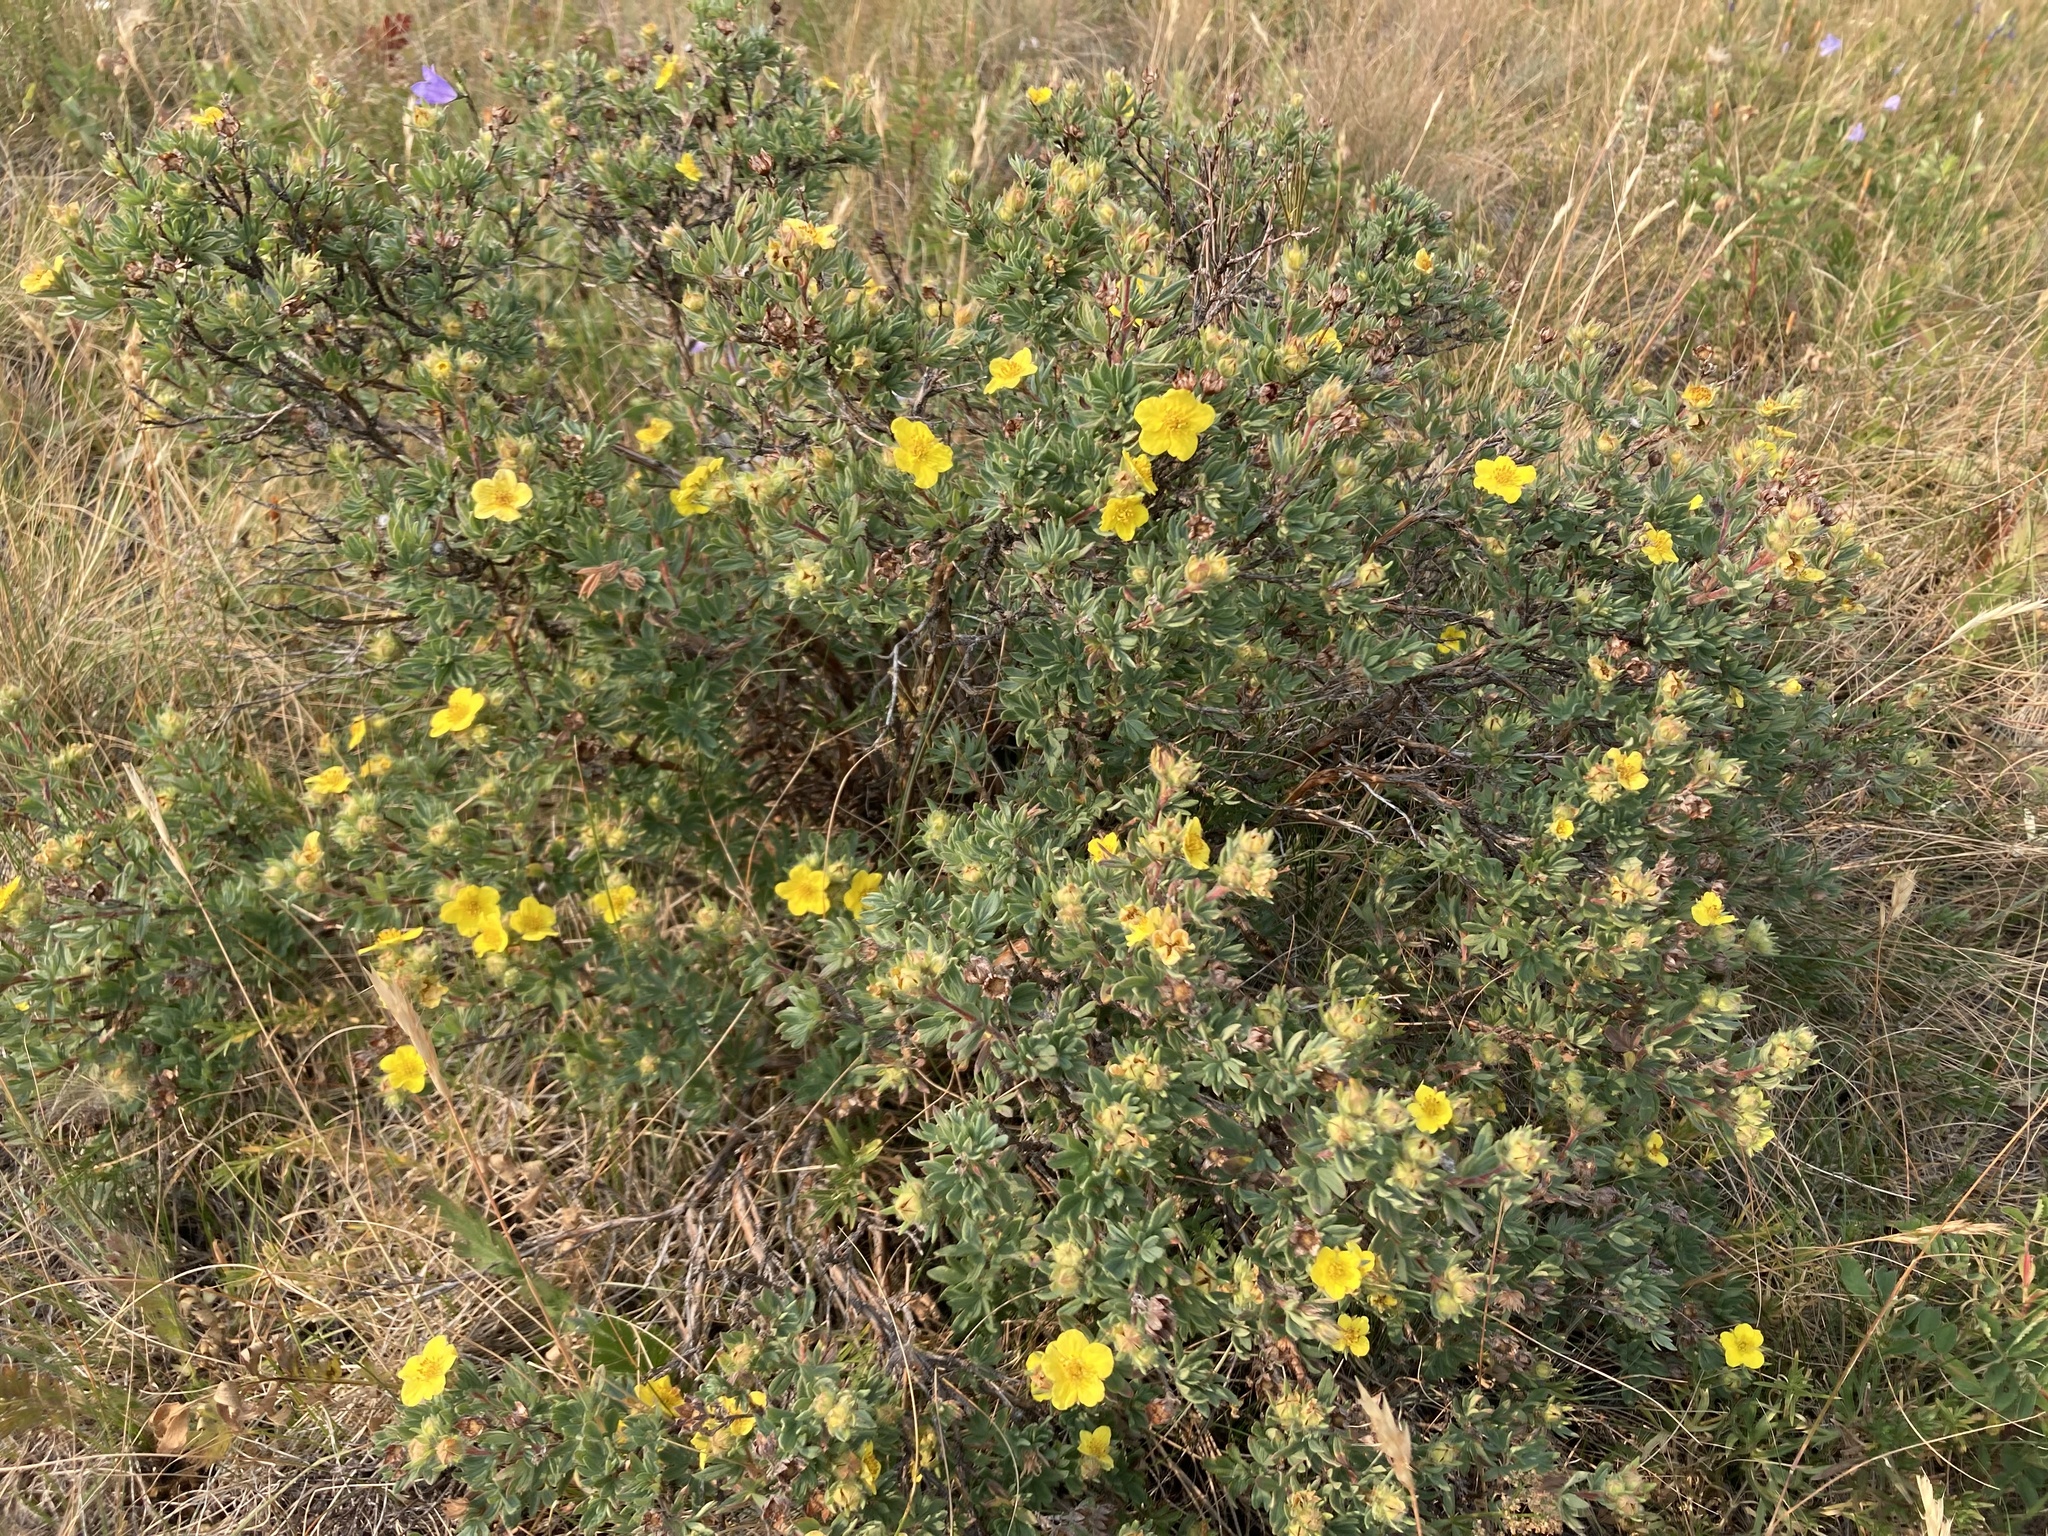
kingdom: Plantae
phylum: Tracheophyta
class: Magnoliopsida
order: Rosales
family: Rosaceae
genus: Dasiphora
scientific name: Dasiphora fruticosa
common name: Shrubby cinquefoil
